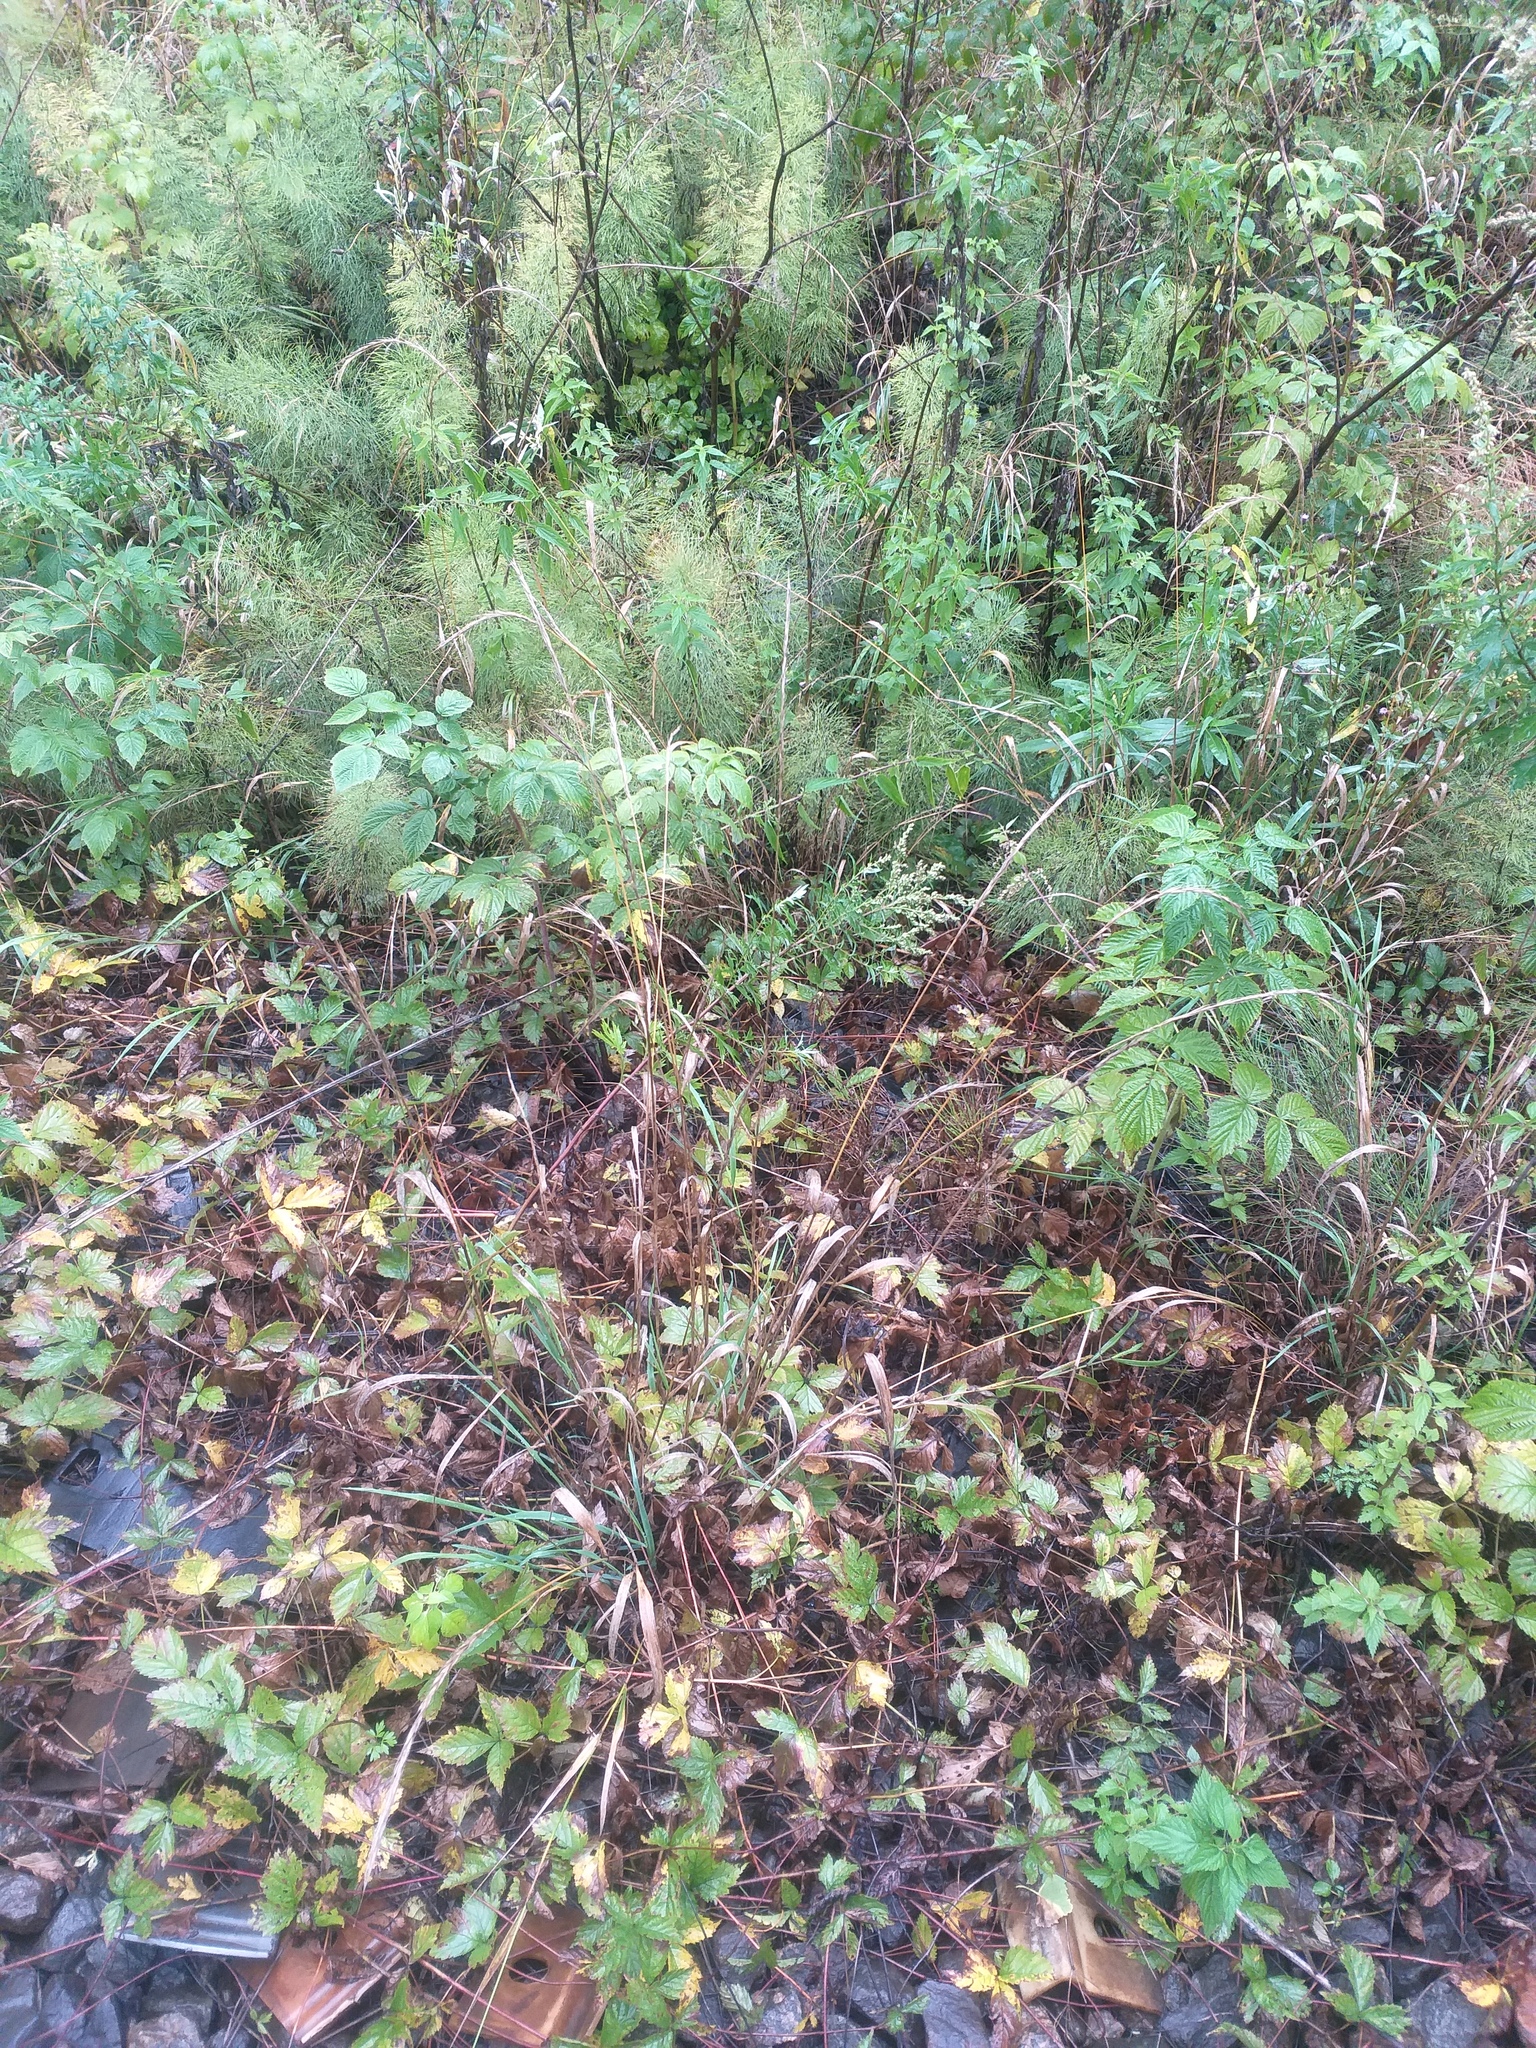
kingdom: Plantae
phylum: Tracheophyta
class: Liliopsida
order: Poales
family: Poaceae
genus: Elymus
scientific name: Elymus caninus
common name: Bearded couch
